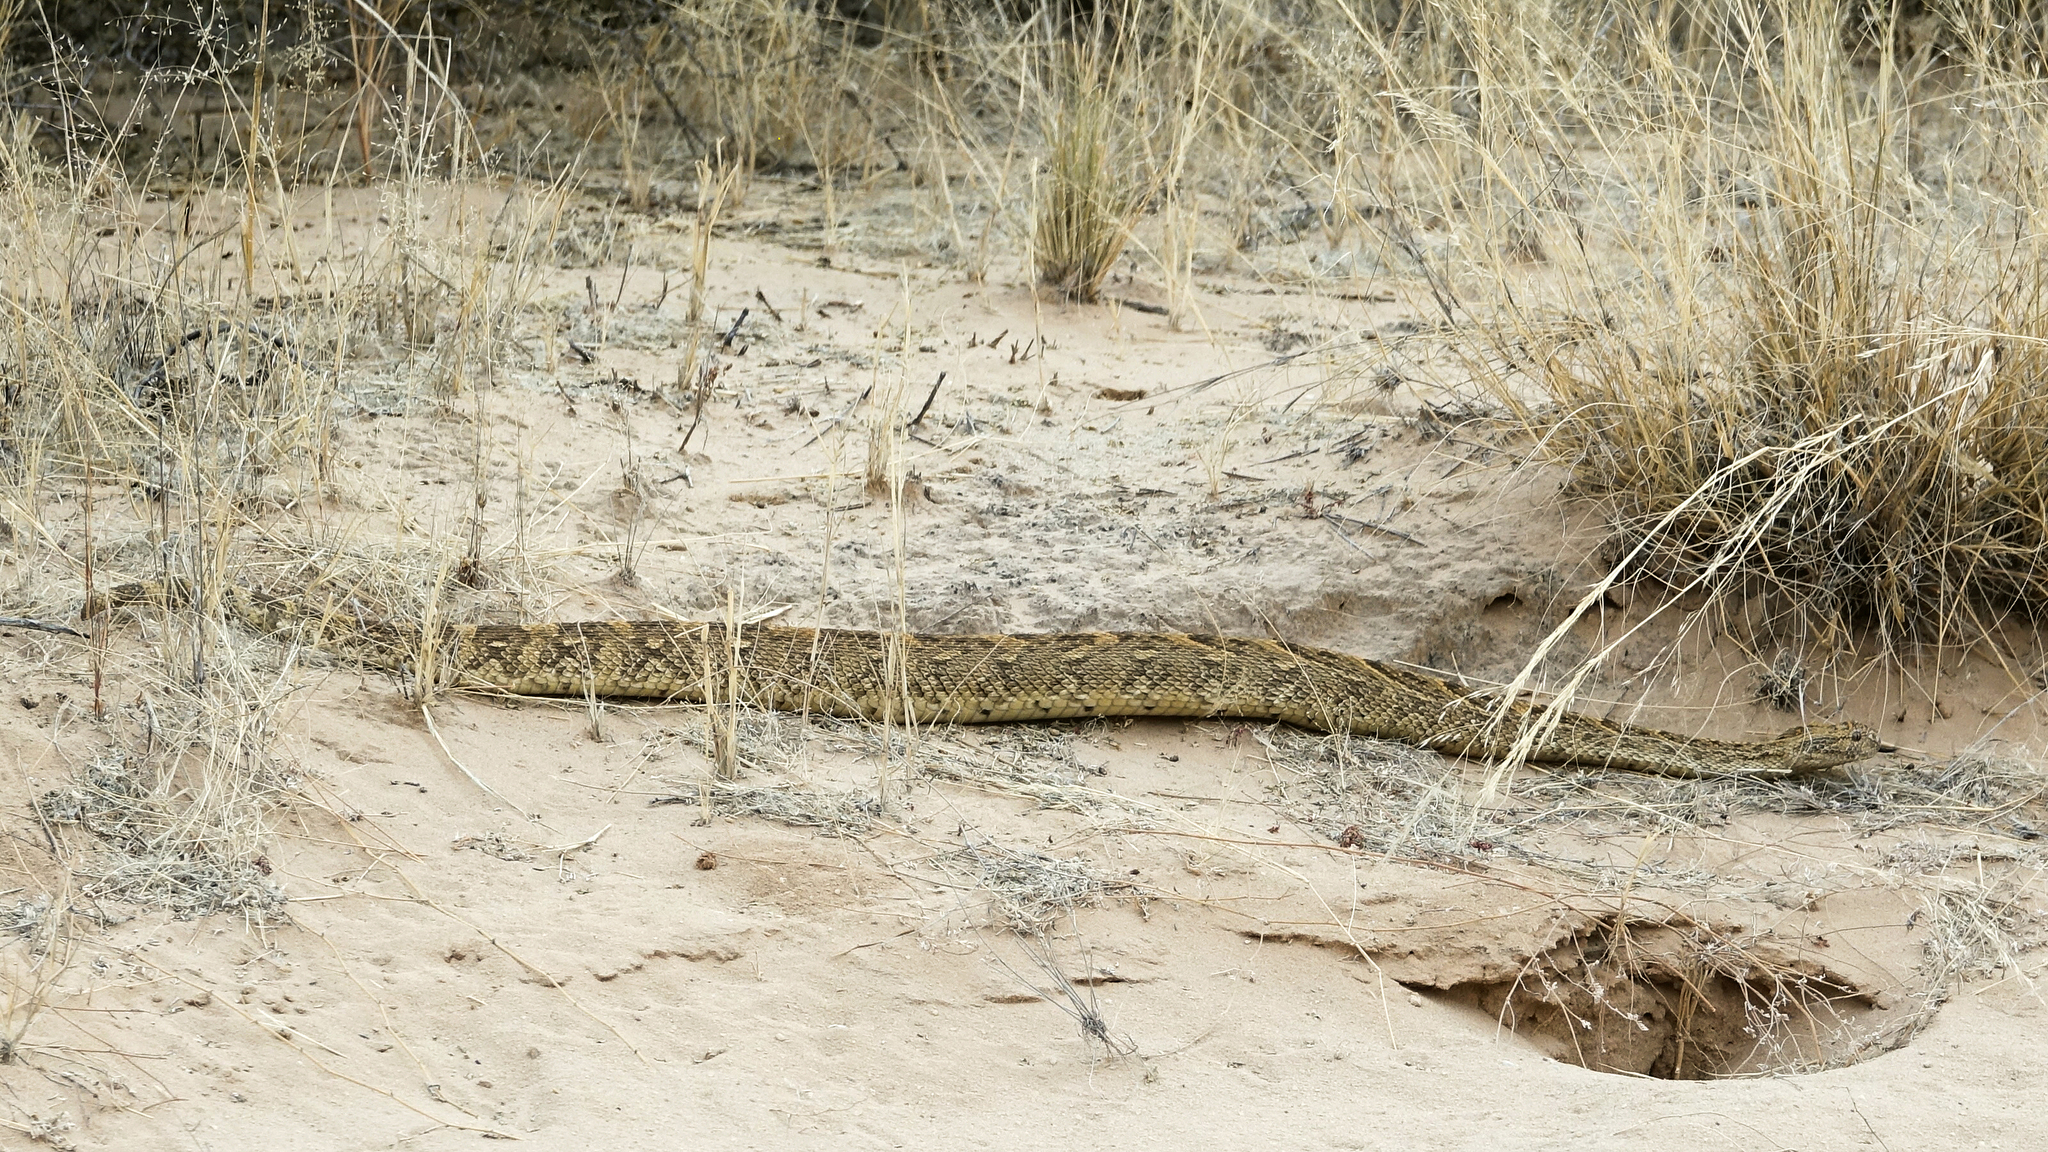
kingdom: Animalia
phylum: Chordata
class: Squamata
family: Viperidae
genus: Bitis
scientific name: Bitis arietans
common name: Puff adder
